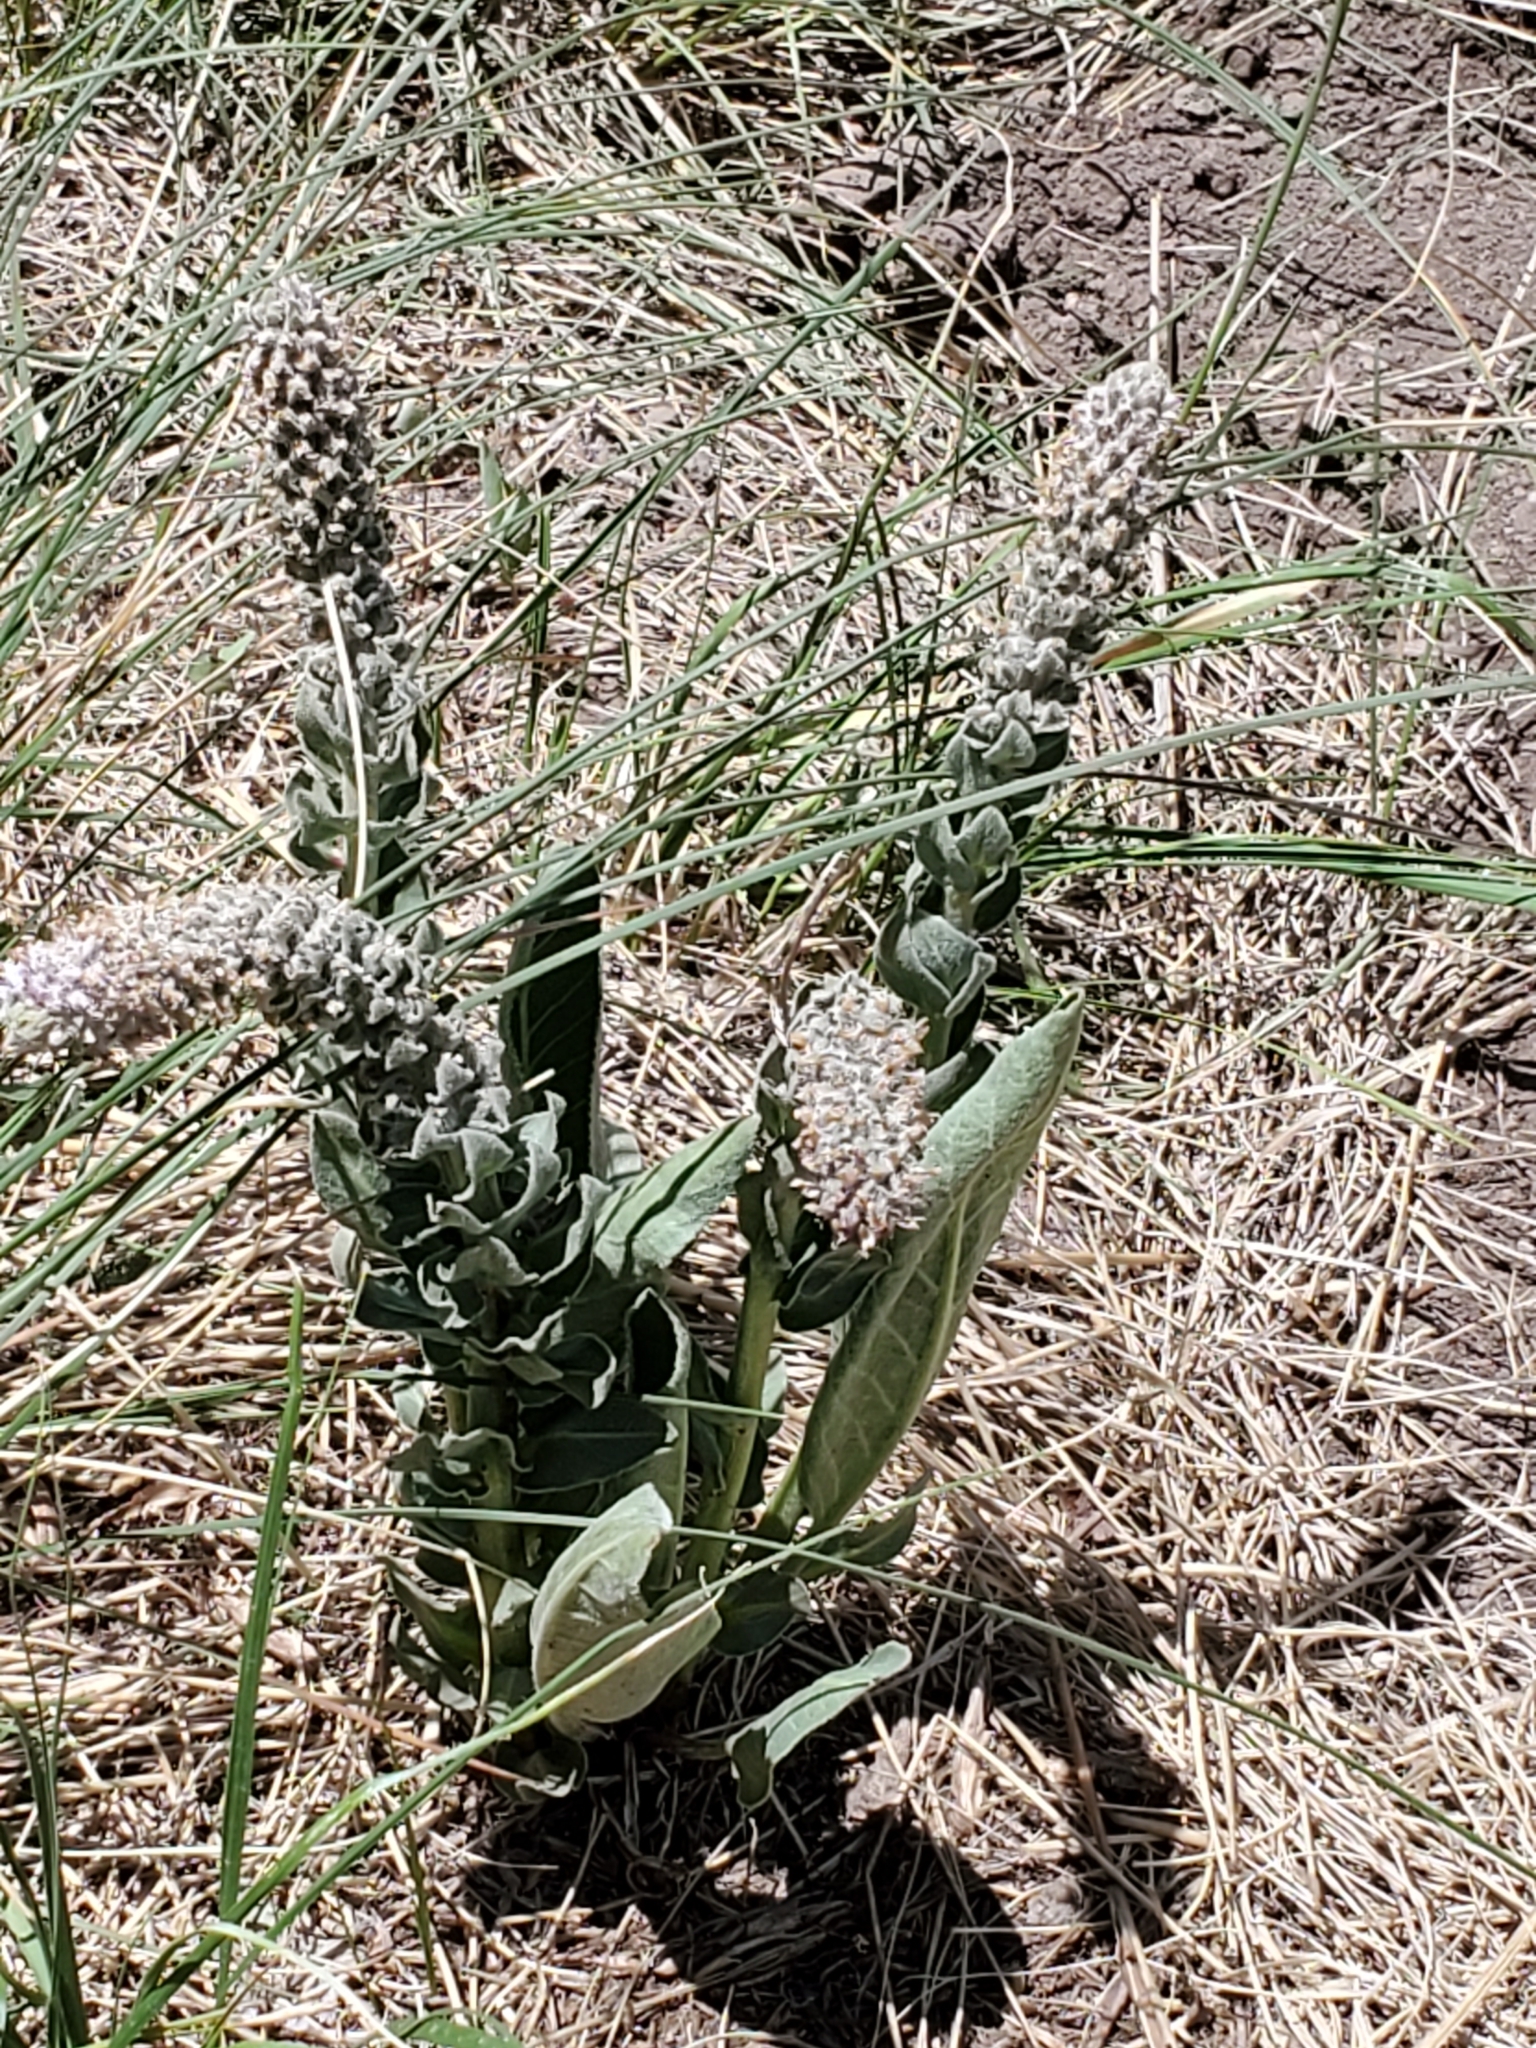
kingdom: Plantae
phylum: Tracheophyta
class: Magnoliopsida
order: Lamiales
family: Plantaginaceae
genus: Veronica
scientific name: Veronica plantaginea
